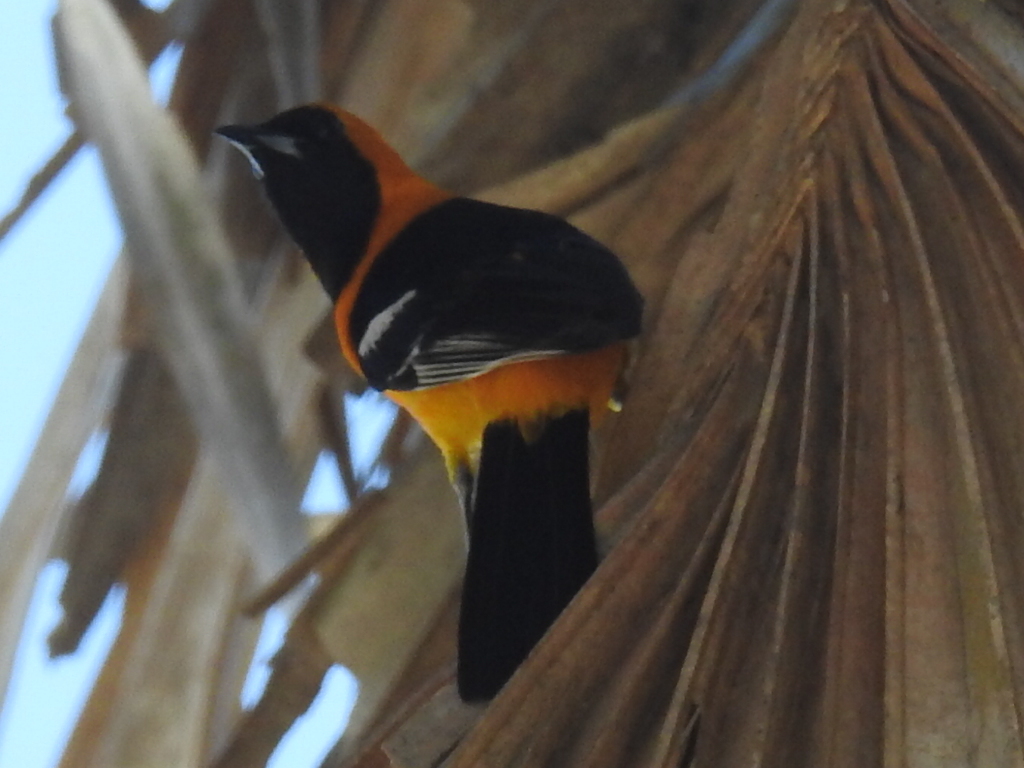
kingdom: Animalia
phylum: Chordata
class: Aves
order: Passeriformes
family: Icteridae
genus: Icterus
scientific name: Icterus cucullatus
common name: Hooded oriole
